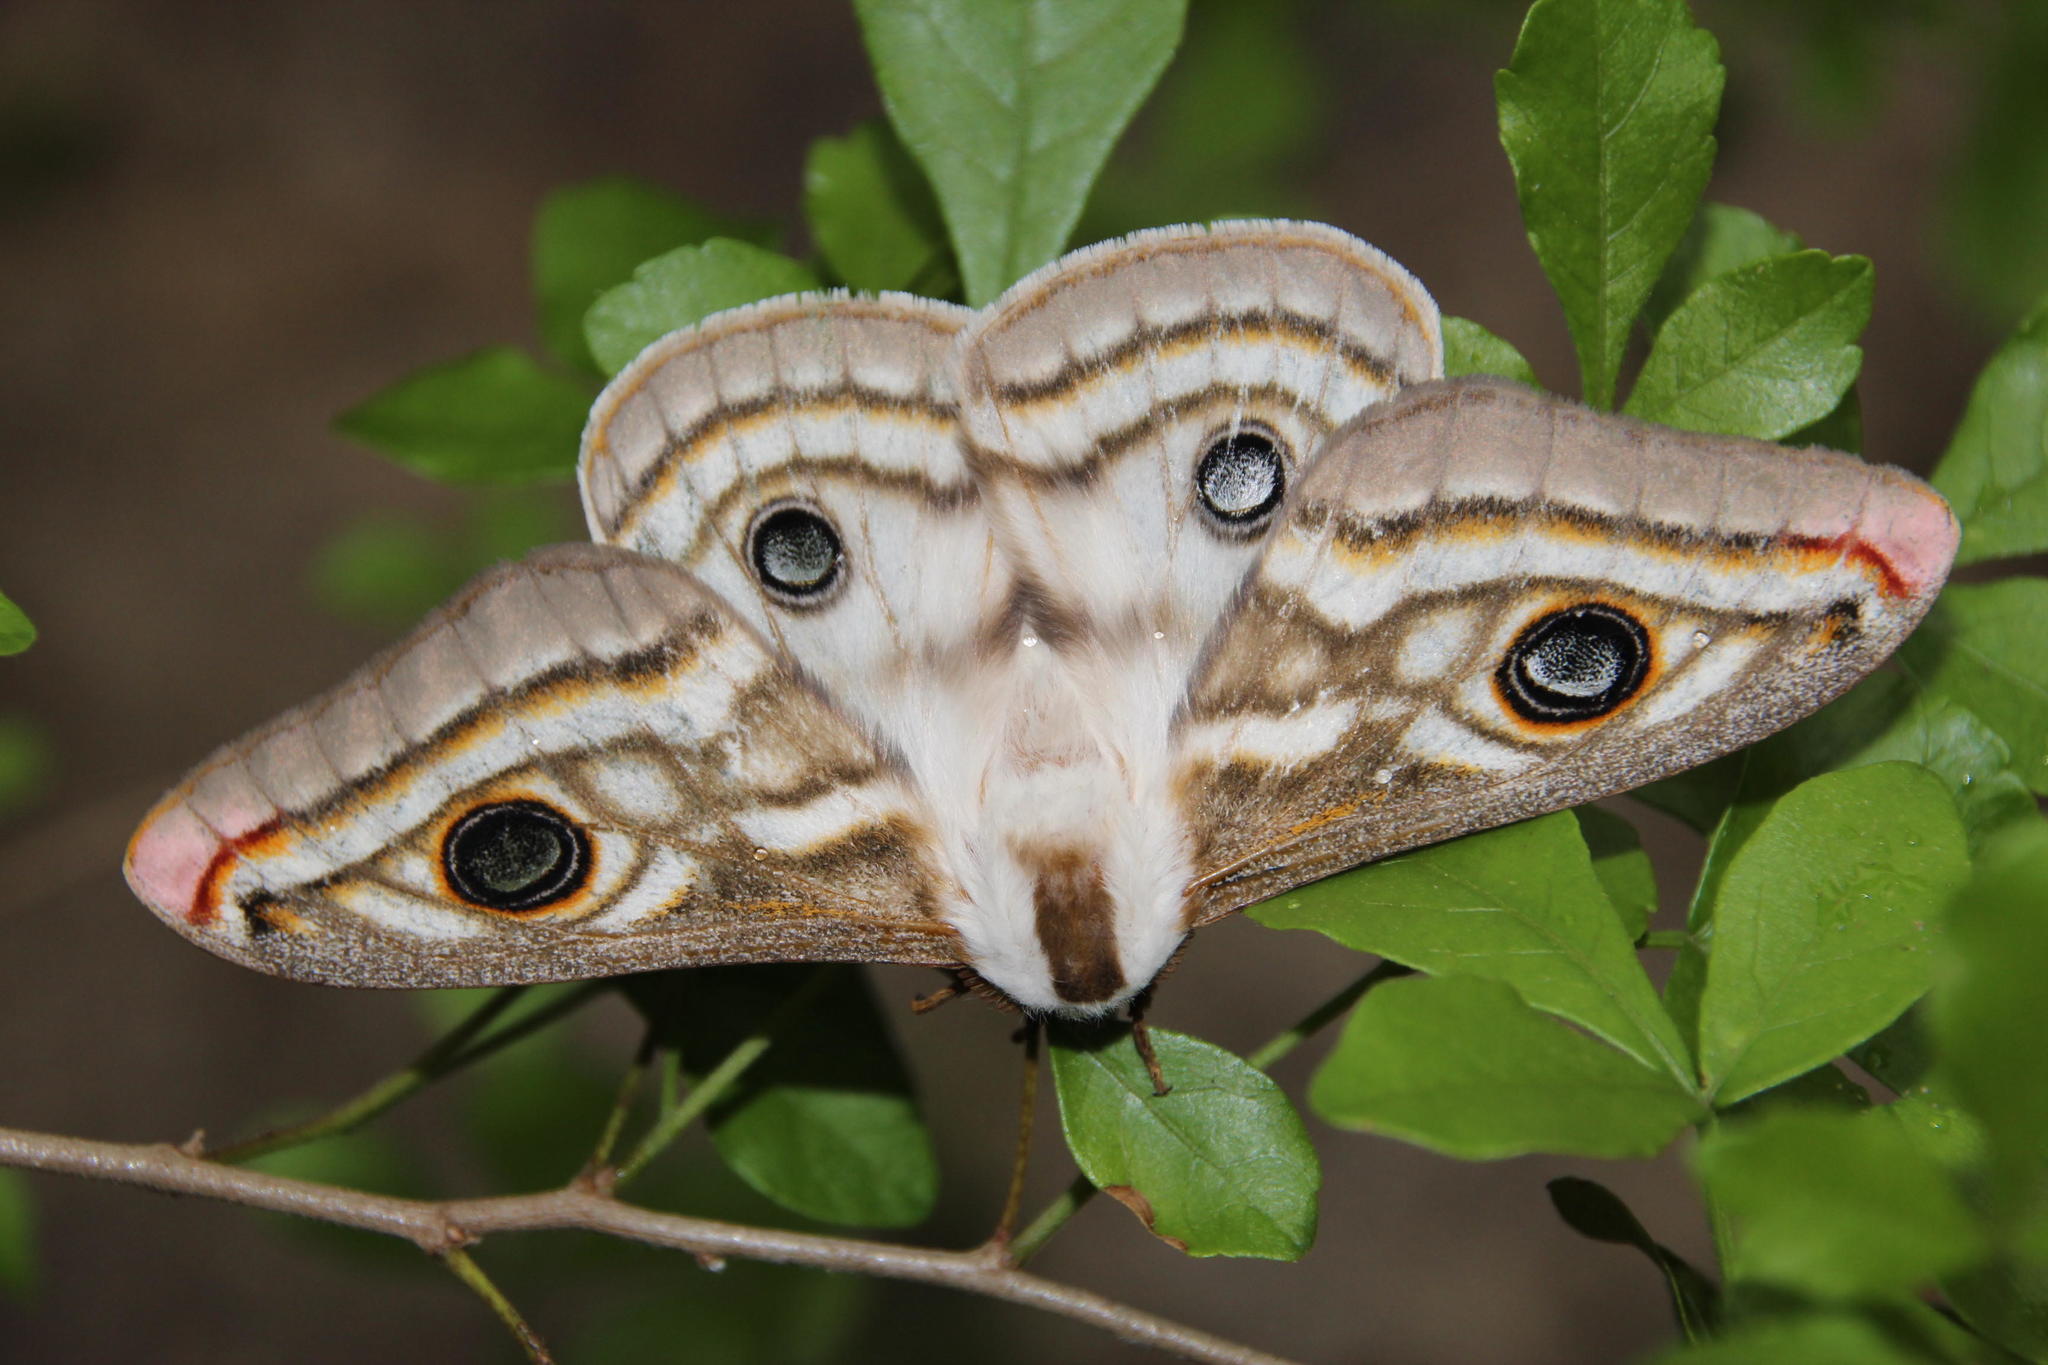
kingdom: Animalia
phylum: Arthropoda
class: Insecta
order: Lepidoptera
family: Saturniidae
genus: Heniocha
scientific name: Heniocha apollonia
